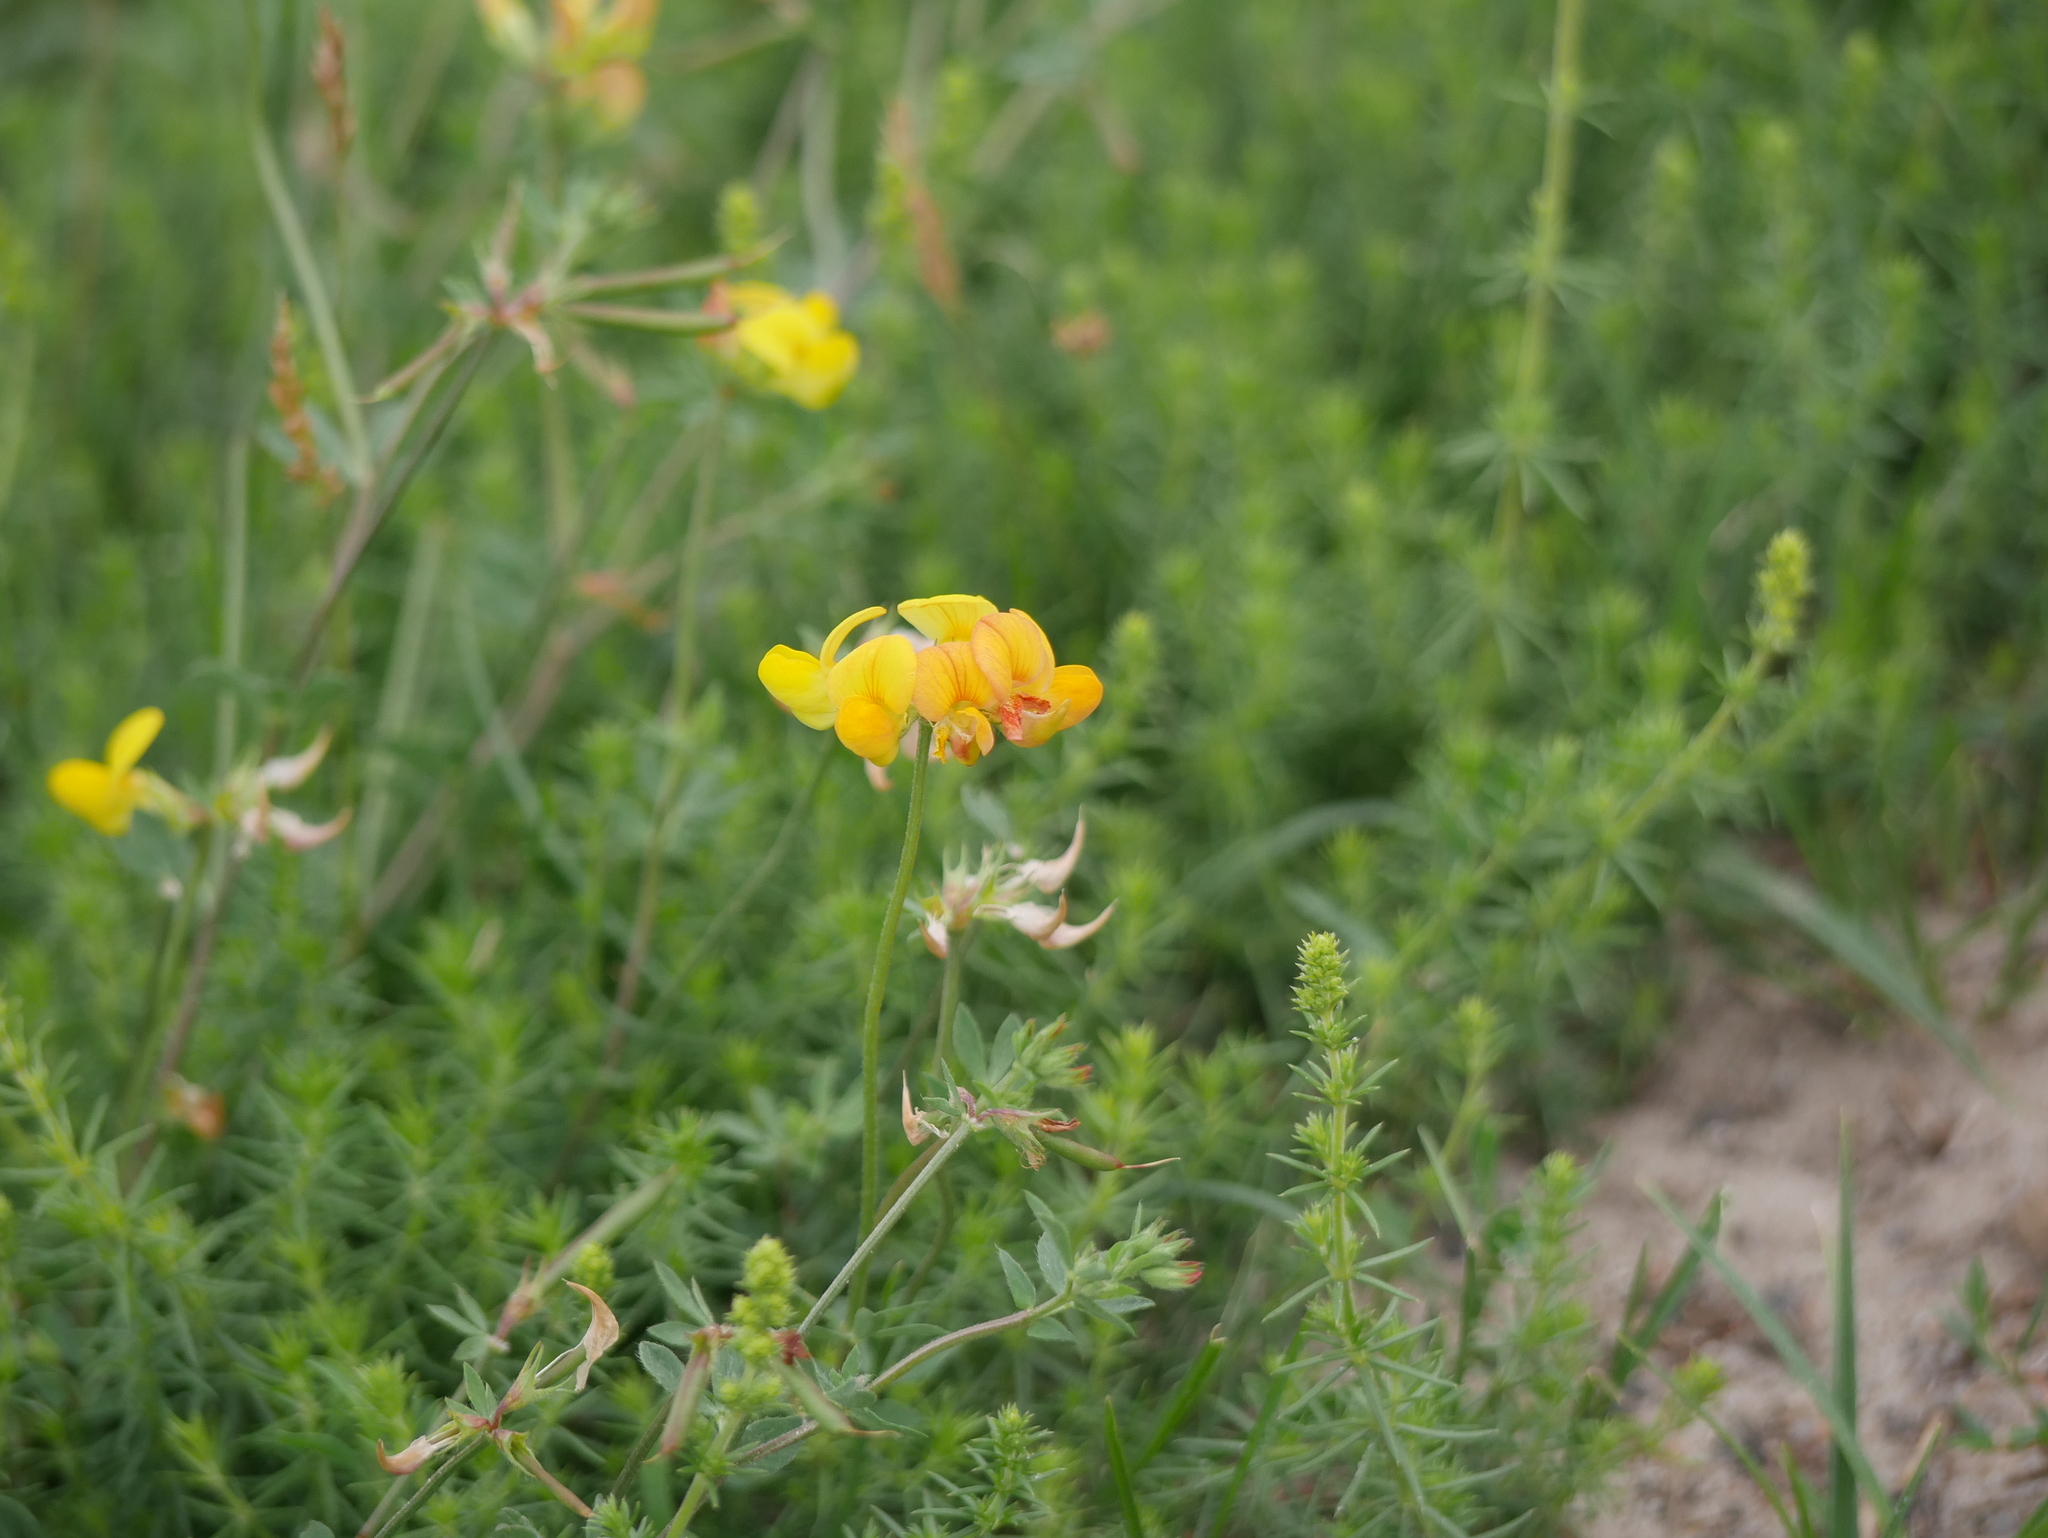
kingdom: Plantae
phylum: Tracheophyta
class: Magnoliopsida
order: Fabales
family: Fabaceae
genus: Lotus
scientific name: Lotus corniculatus
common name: Common bird's-foot-trefoil
